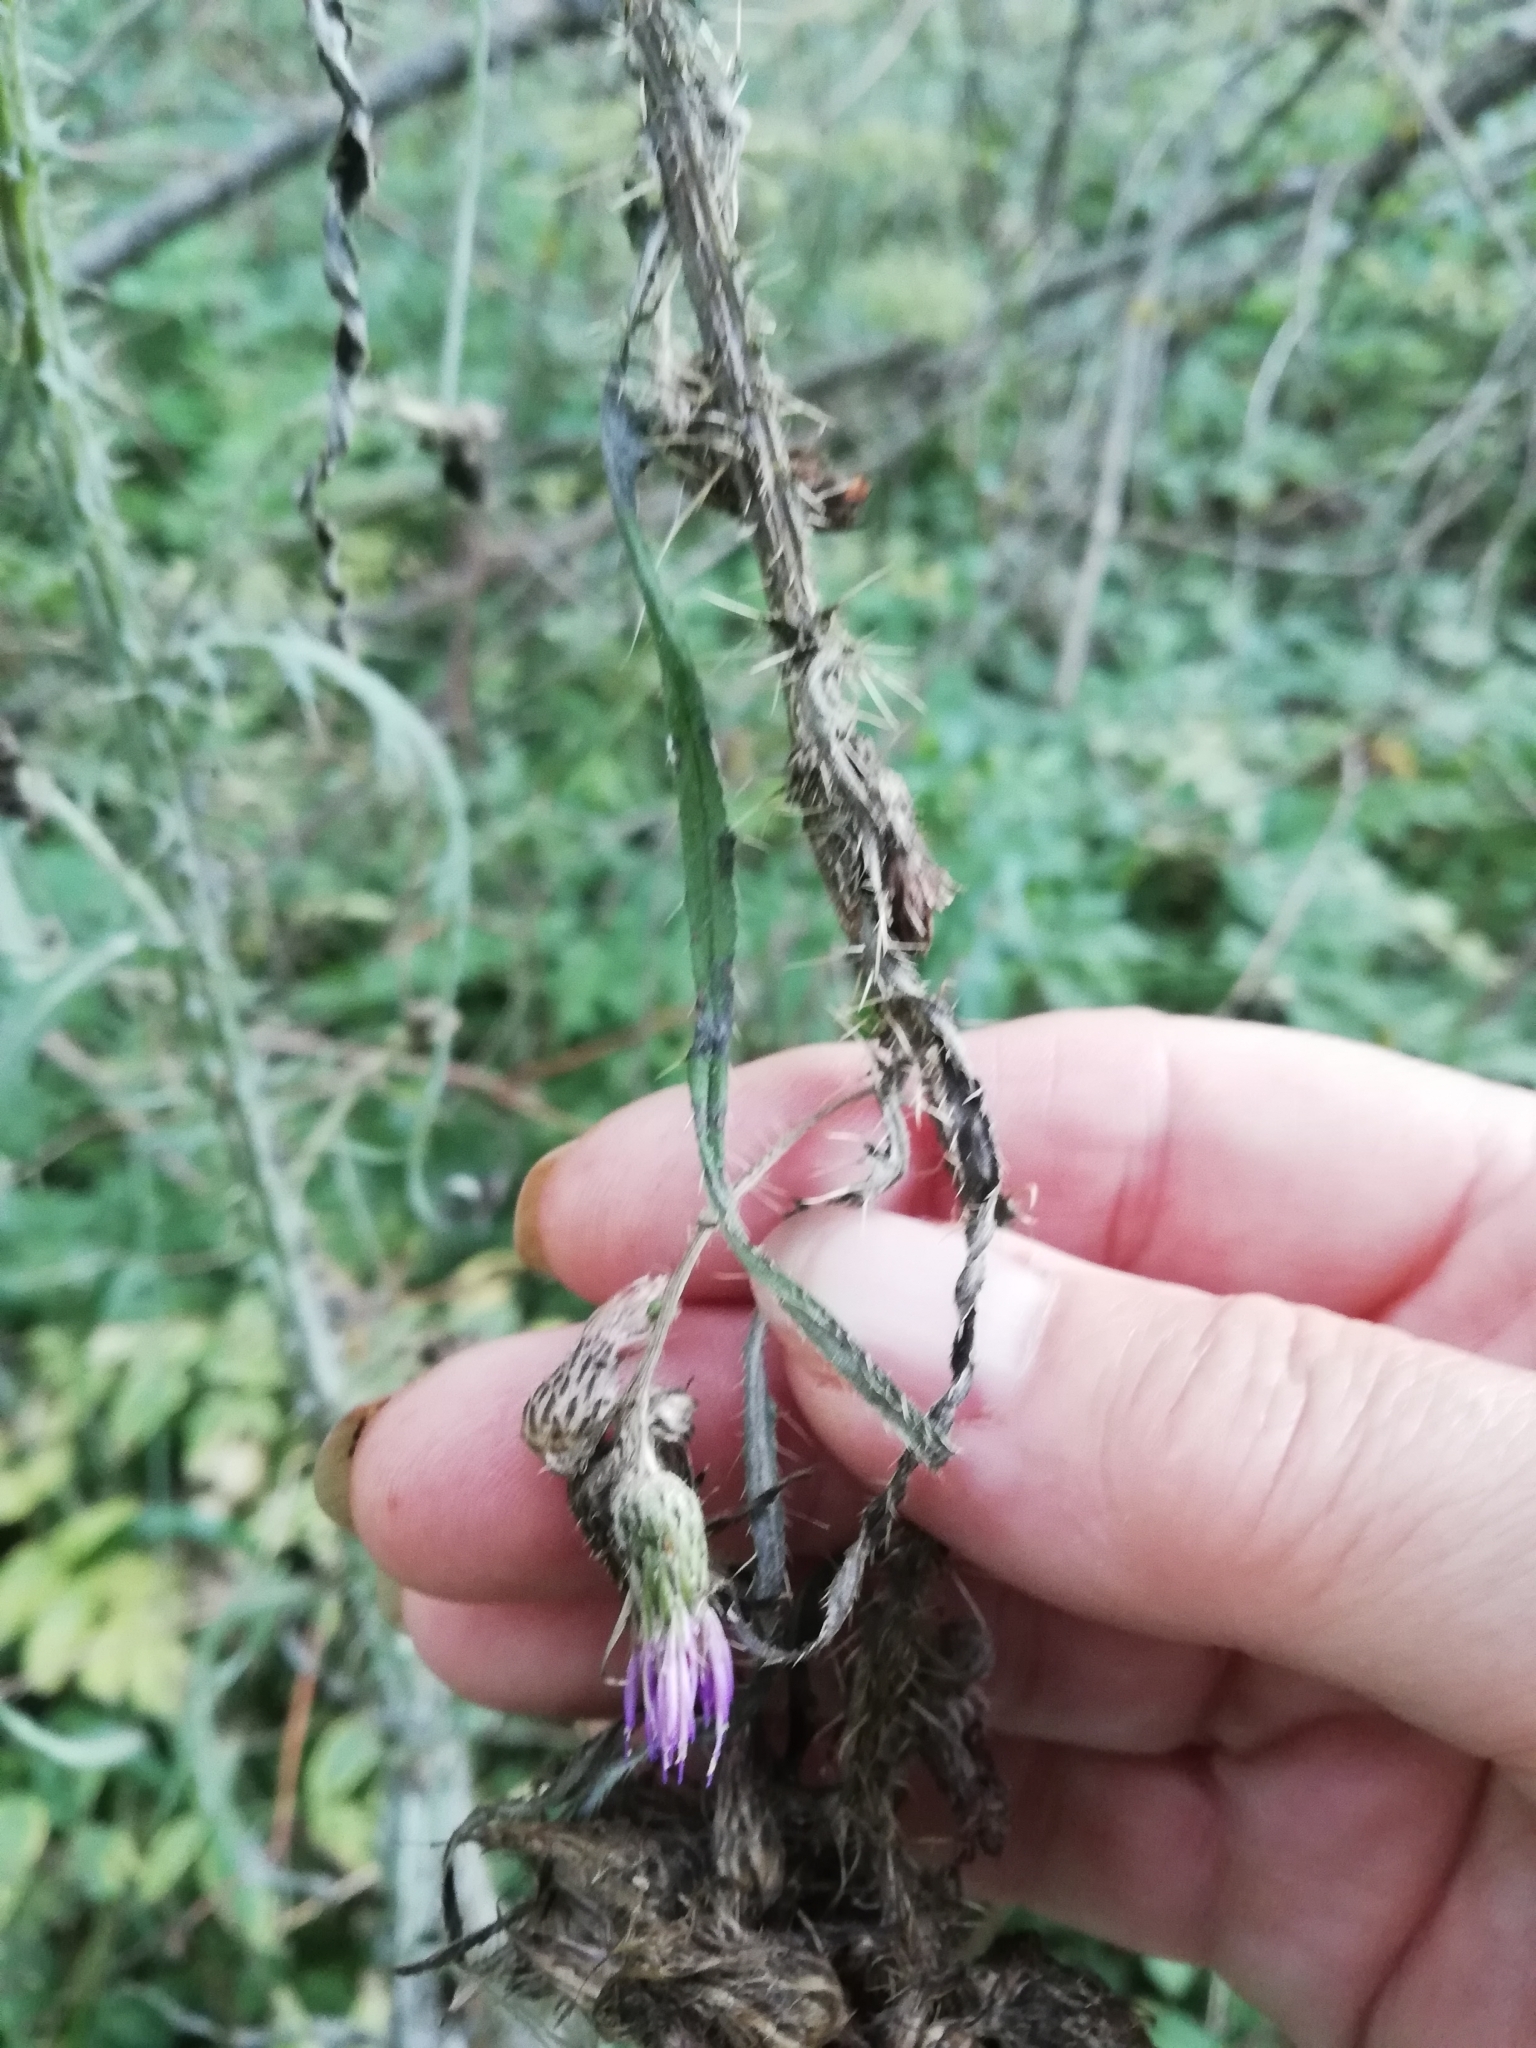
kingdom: Plantae
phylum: Tracheophyta
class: Magnoliopsida
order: Asterales
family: Asteraceae
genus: Cirsium
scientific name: Cirsium palustre
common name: Marsh thistle
